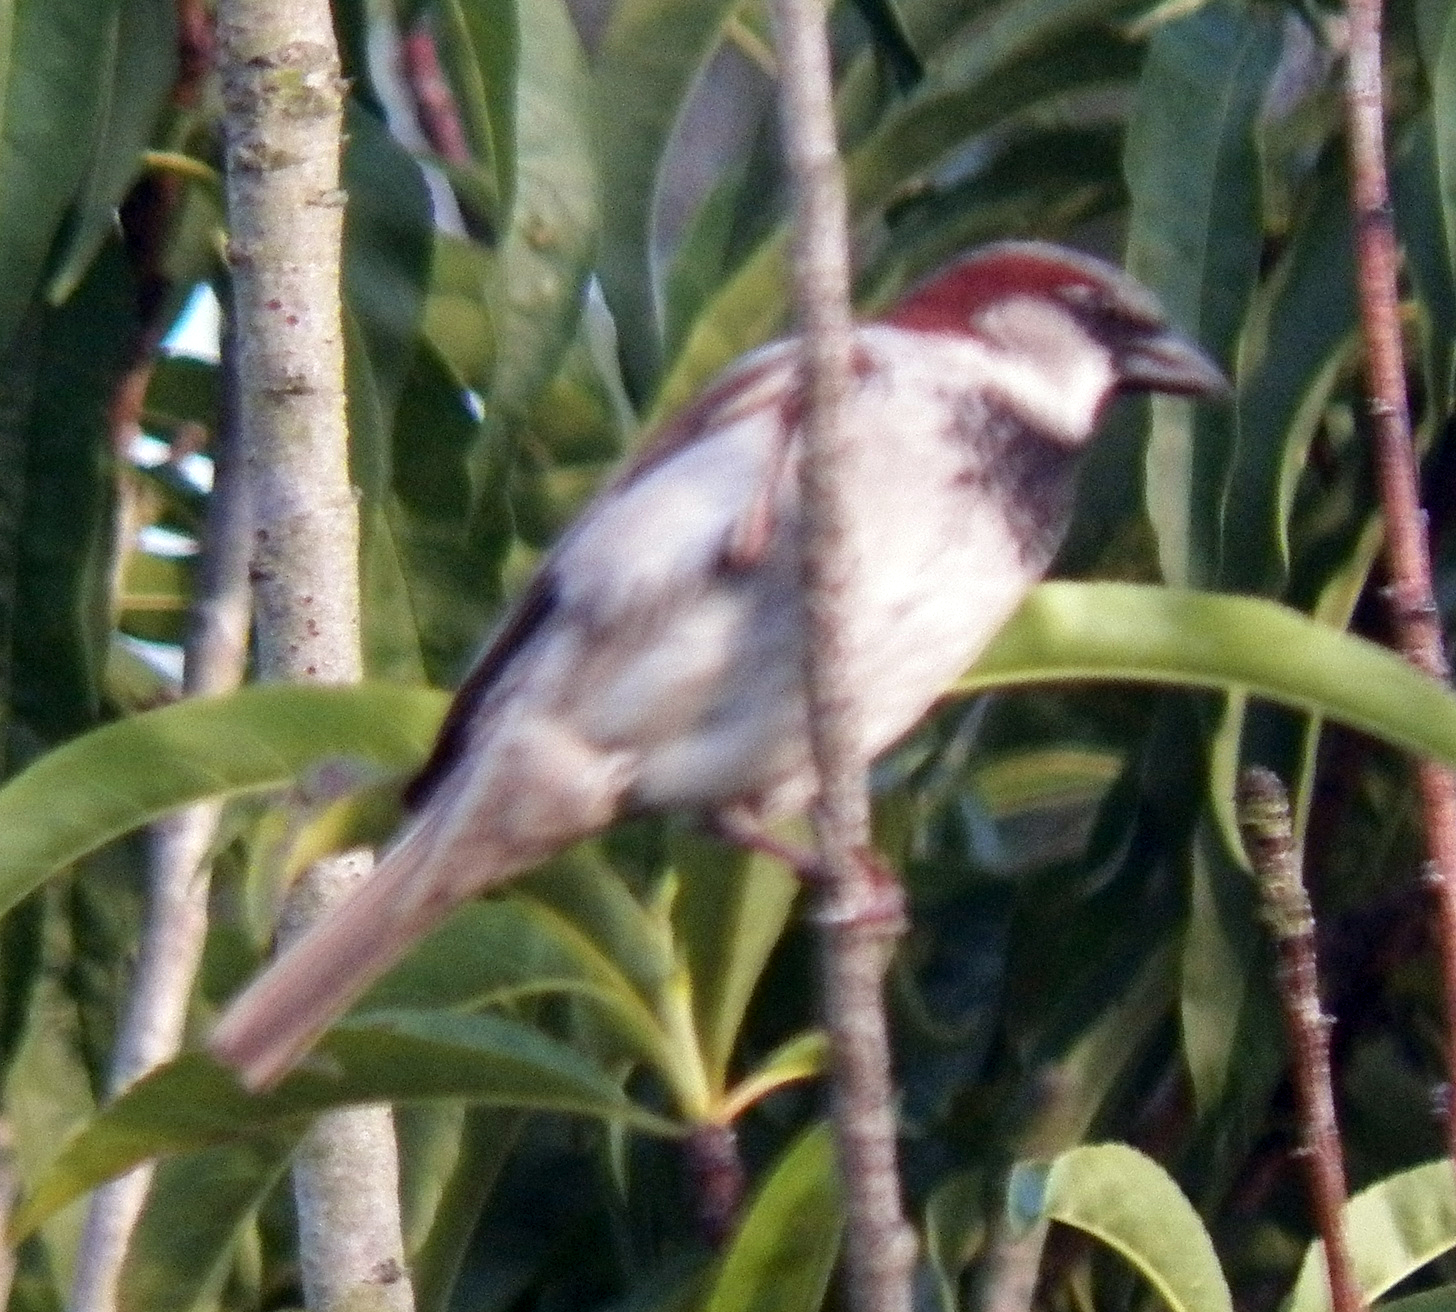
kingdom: Animalia
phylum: Chordata
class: Aves
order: Passeriformes
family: Passeridae
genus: Passer
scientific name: Passer domesticus
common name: House sparrow
